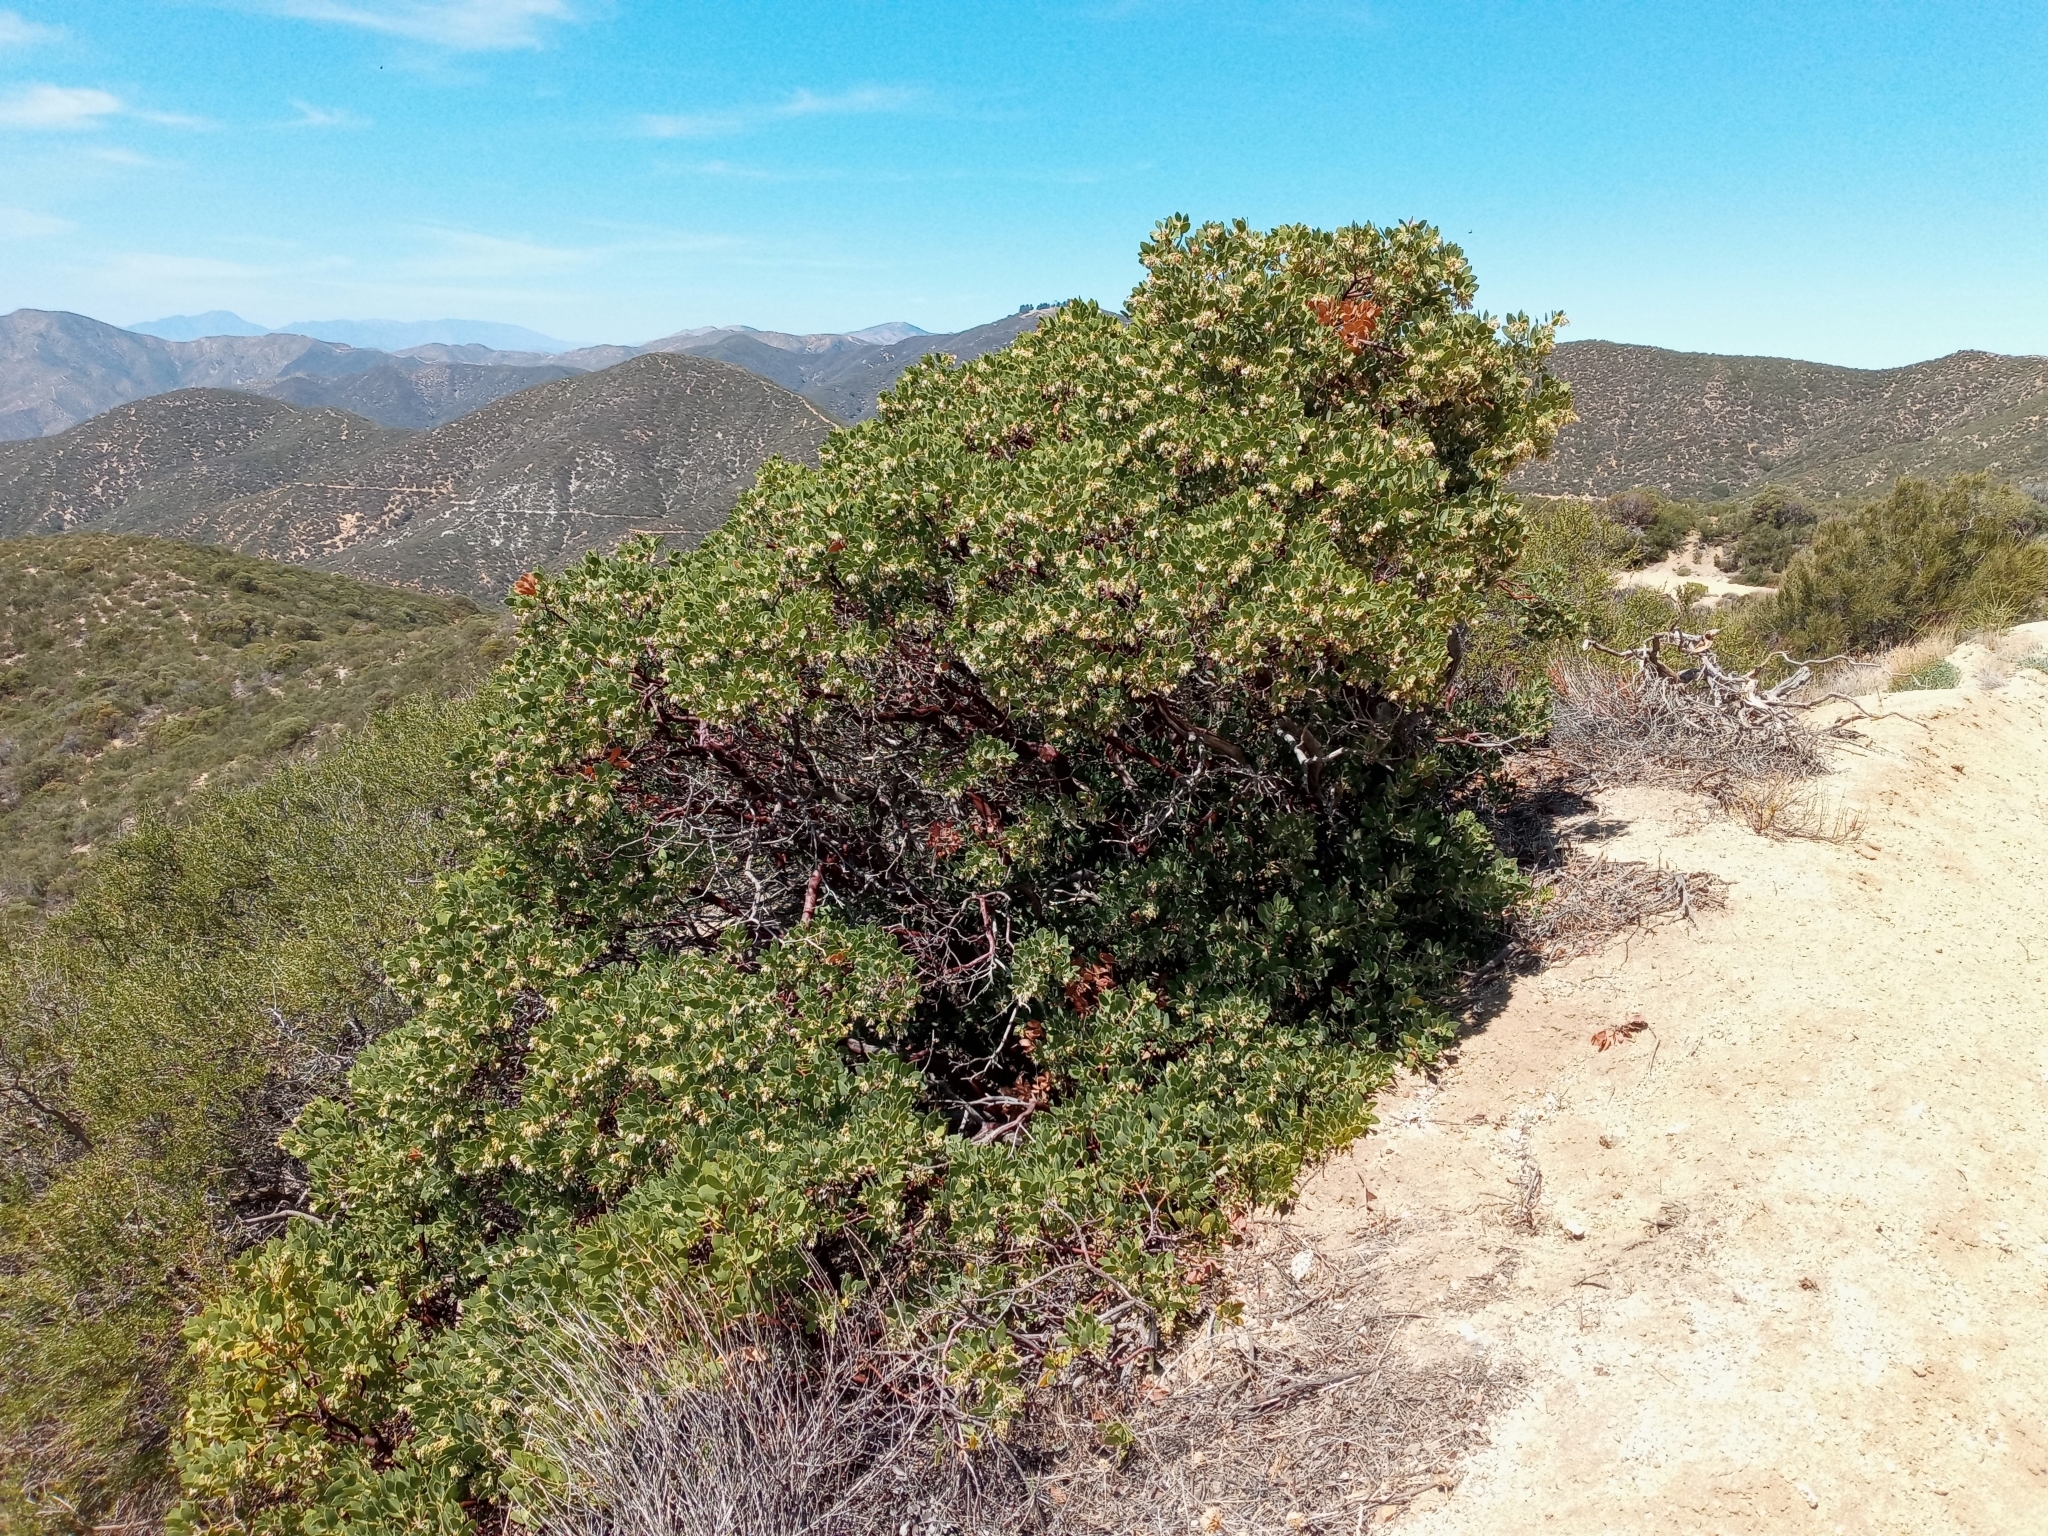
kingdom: Plantae
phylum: Tracheophyta
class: Magnoliopsida
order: Ericales
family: Ericaceae
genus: Arctostaphylos
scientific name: Arctostaphylos glandulosa
